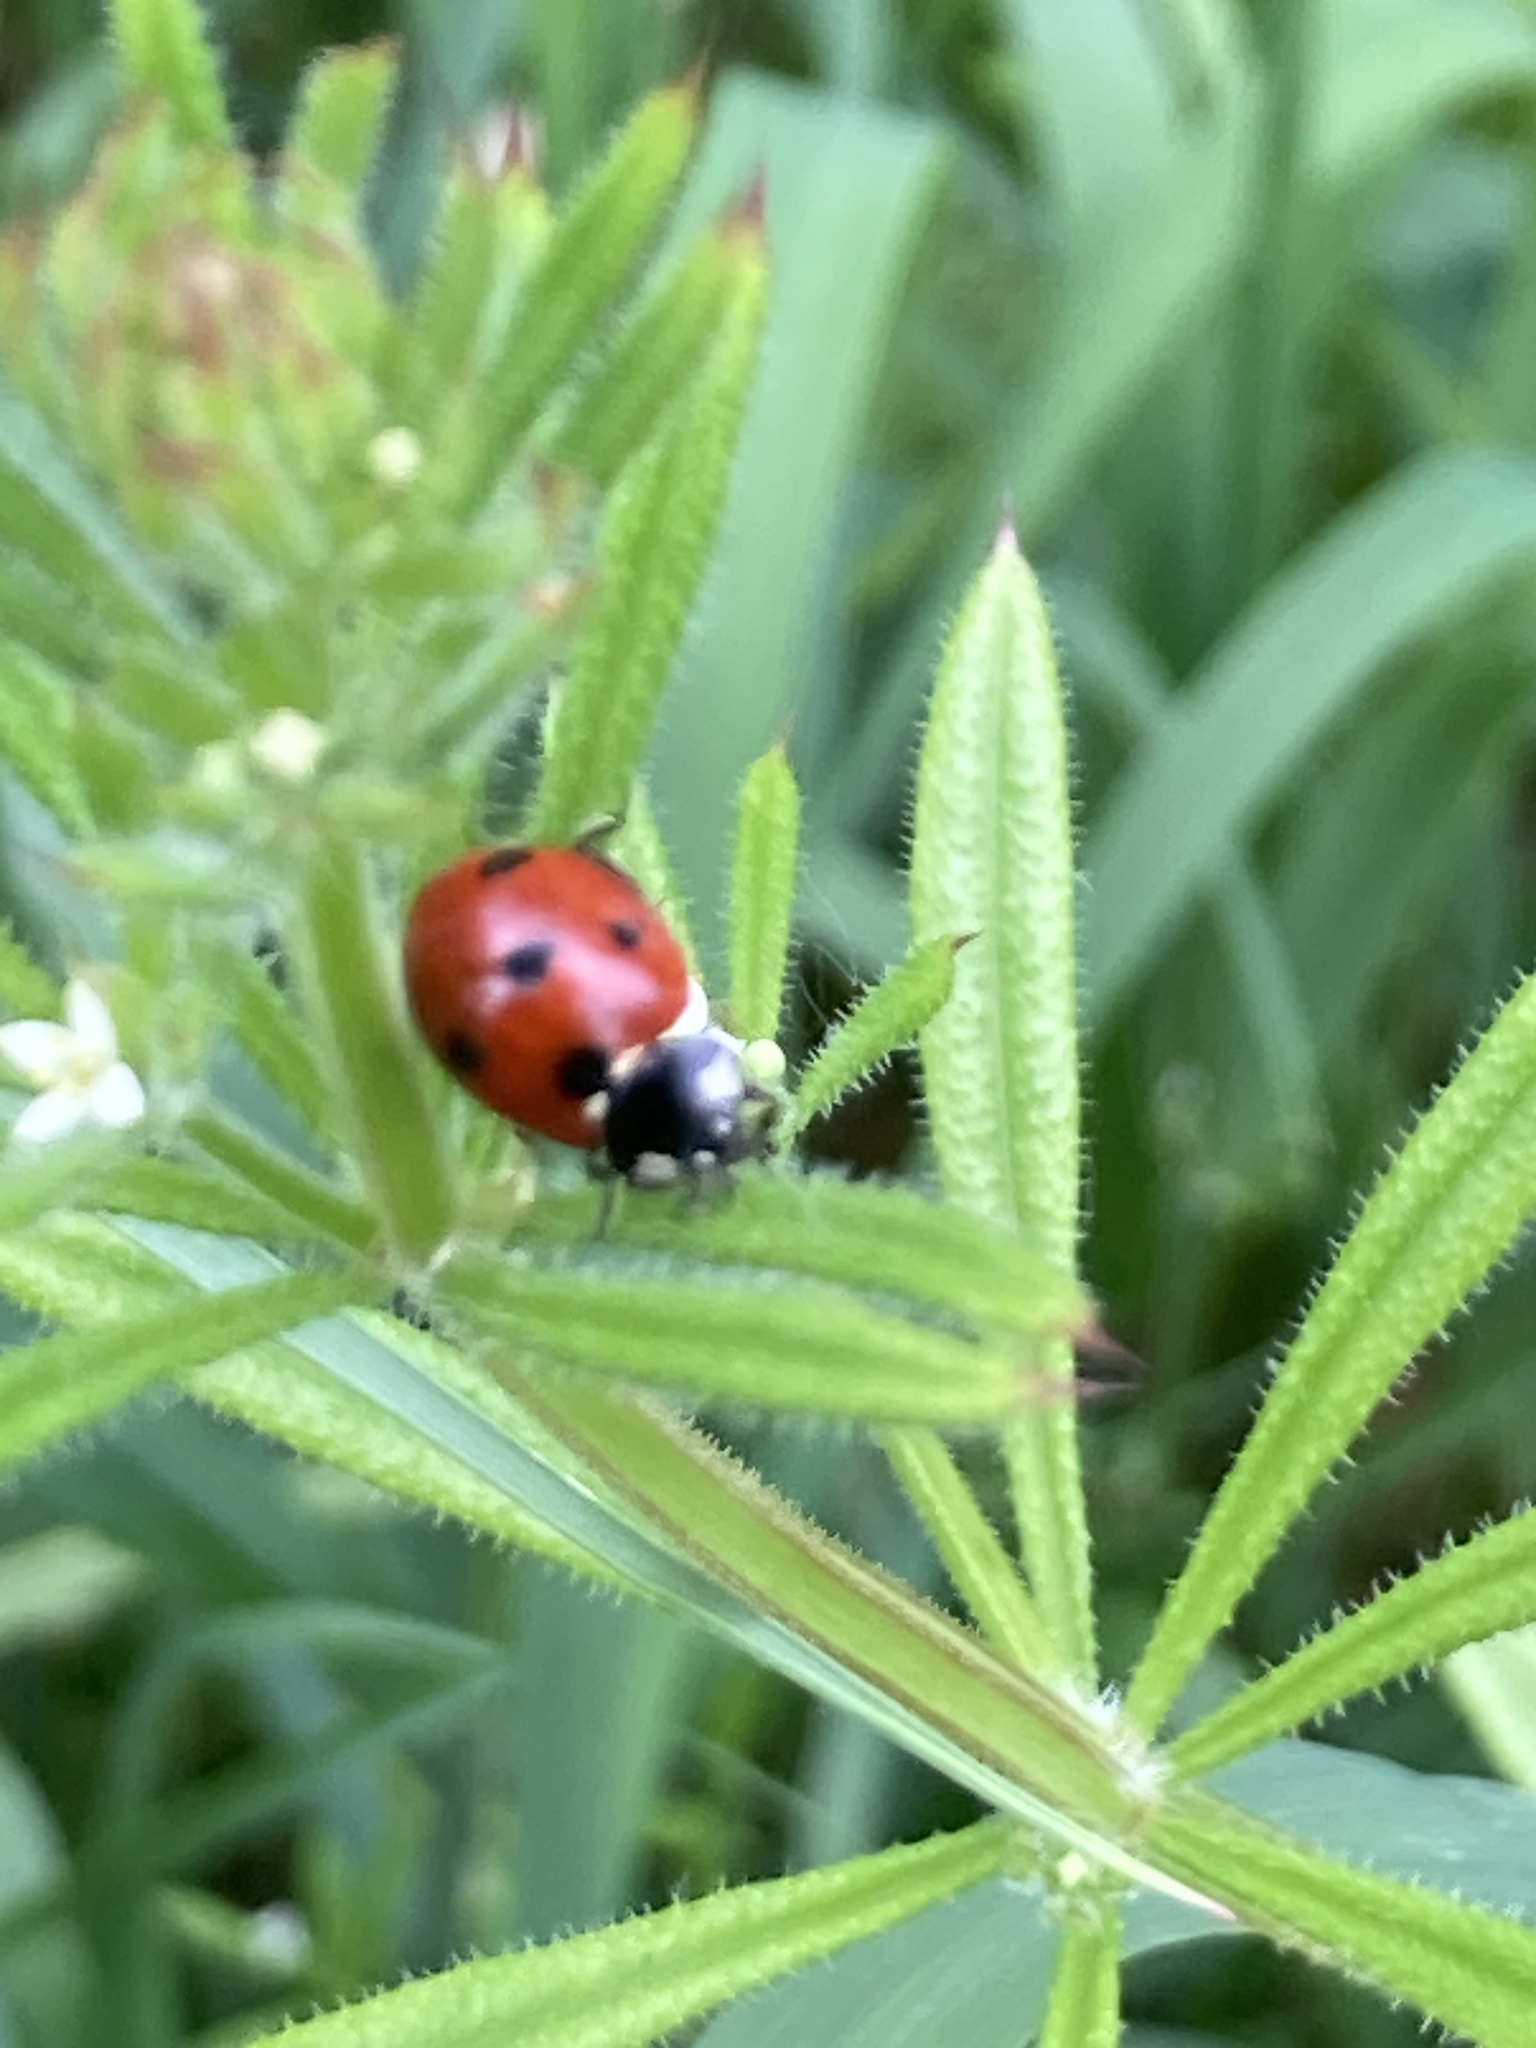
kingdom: Animalia
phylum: Arthropoda
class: Insecta
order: Coleoptera
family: Coccinellidae
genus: Coccinella
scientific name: Coccinella septempunctata
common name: Sevenspotted lady beetle
